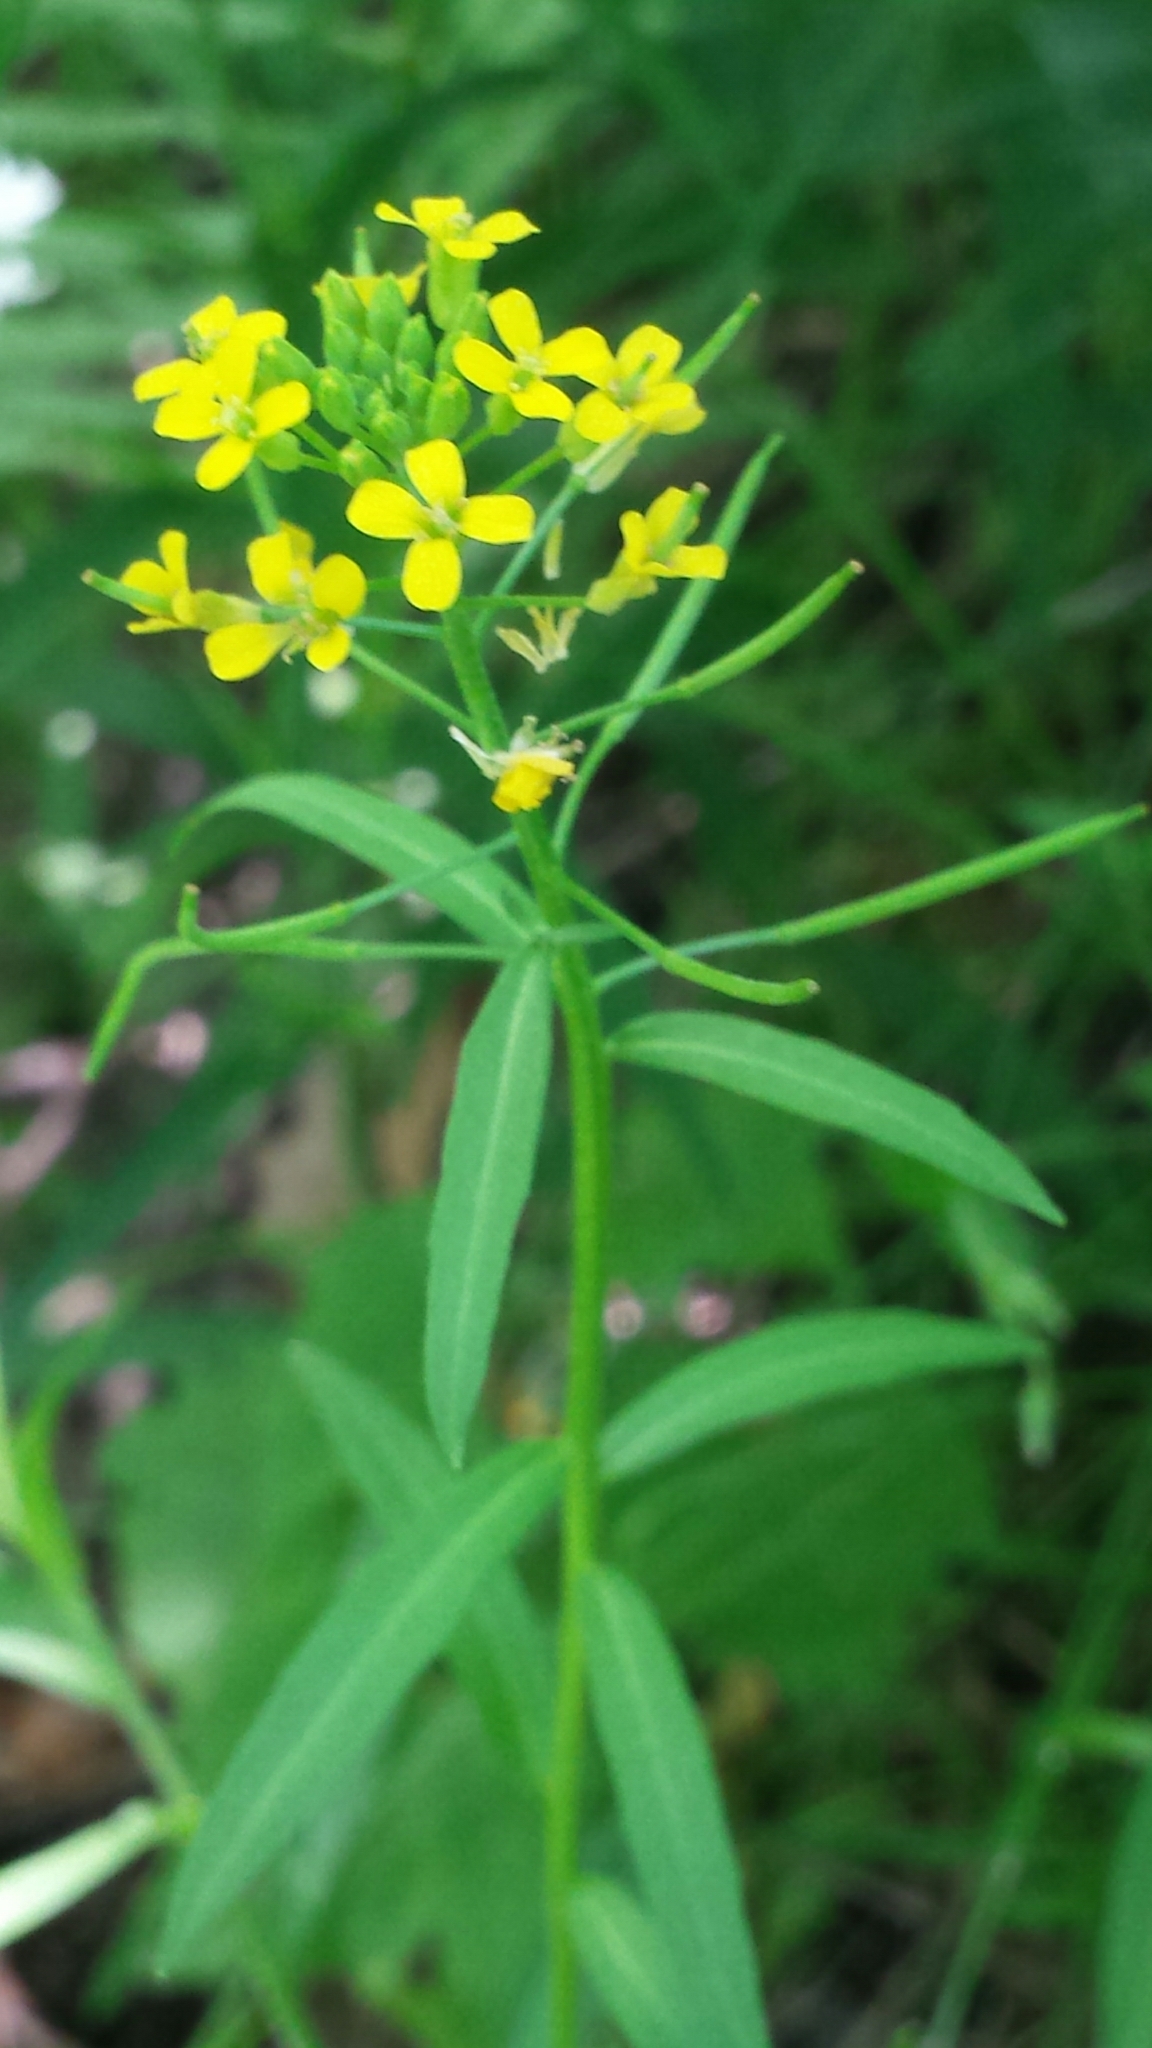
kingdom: Plantae
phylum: Tracheophyta
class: Magnoliopsida
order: Brassicales
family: Brassicaceae
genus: Erysimum
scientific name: Erysimum cheiranthoides
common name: Treacle mustard
